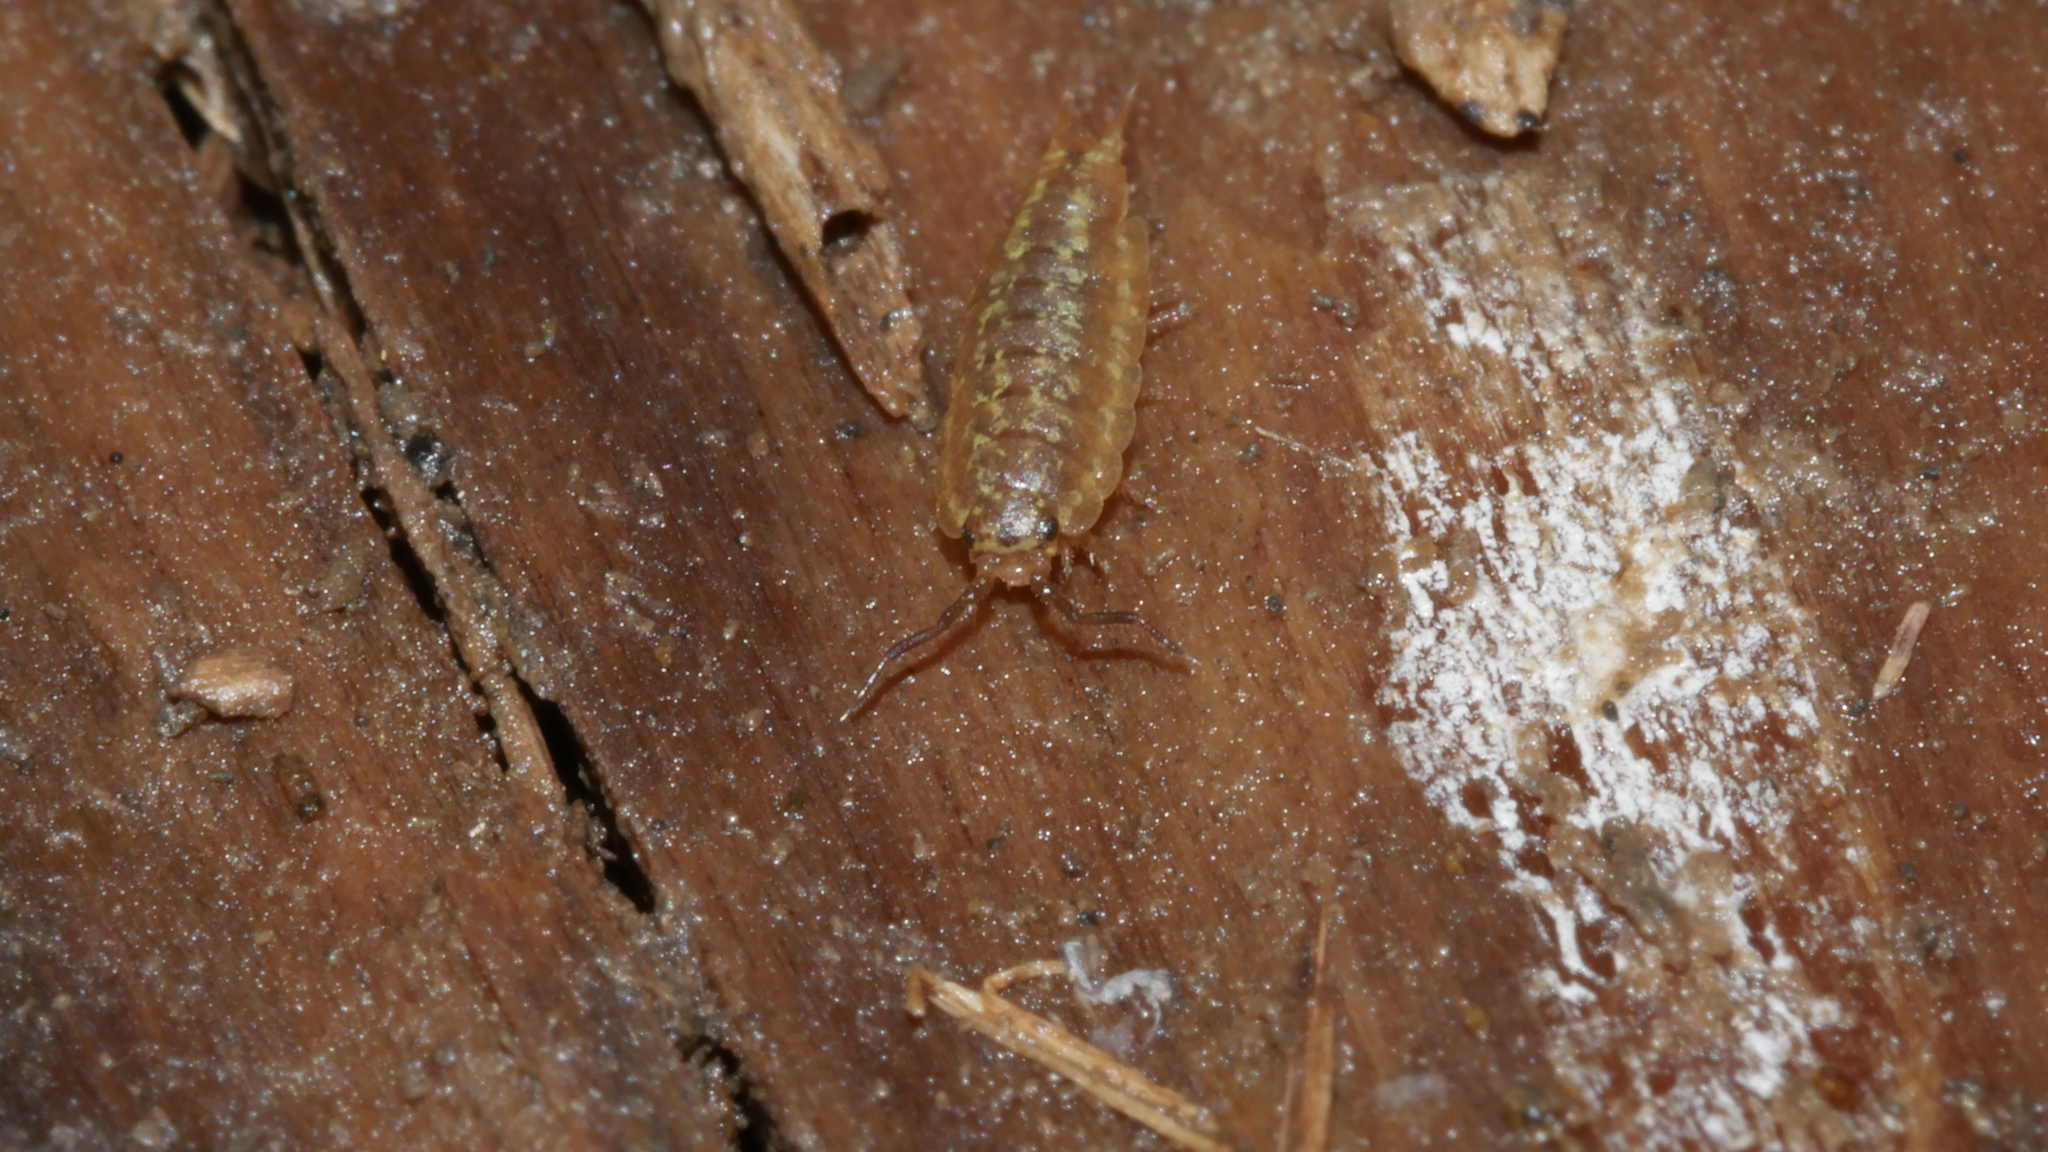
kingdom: Animalia
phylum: Arthropoda
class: Malacostraca
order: Isopoda
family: Halophilosciidae
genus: Littorophiloscia
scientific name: Littorophiloscia vittata
